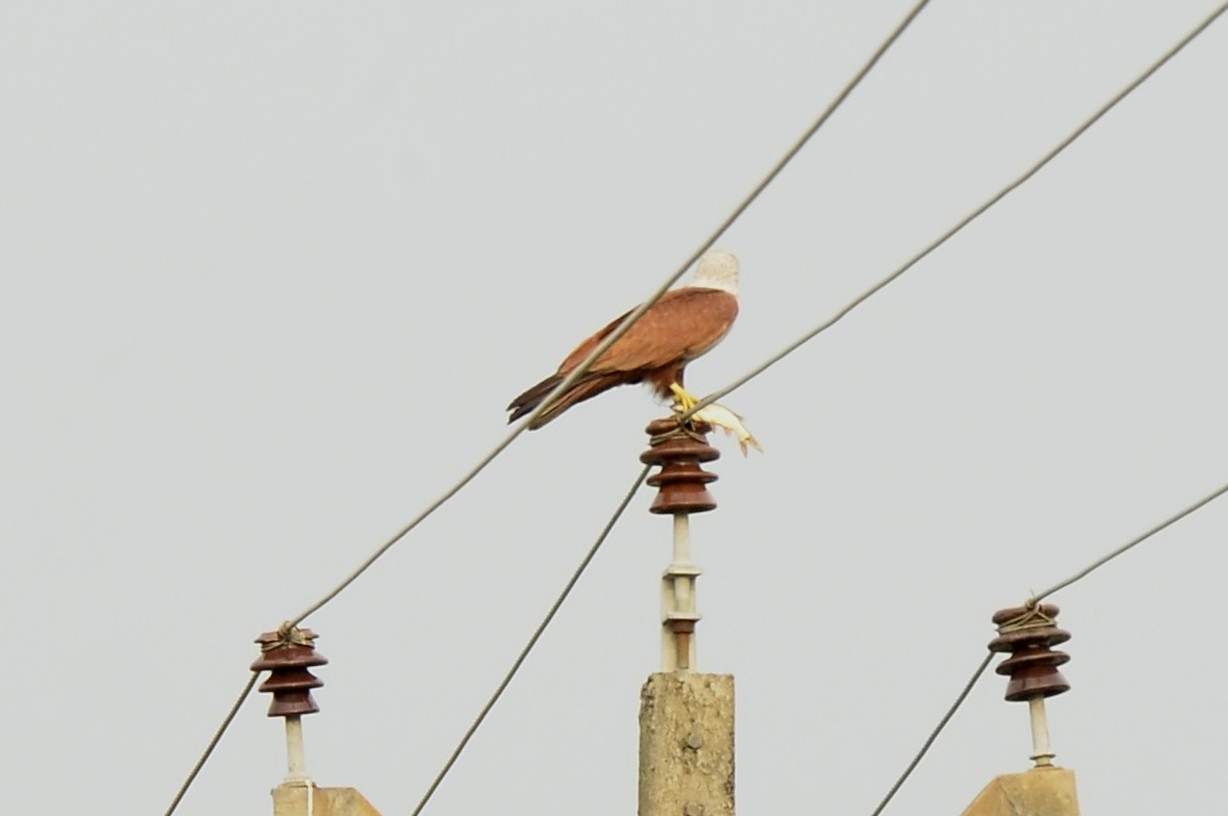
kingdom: Animalia
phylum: Chordata
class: Aves
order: Accipitriformes
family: Accipitridae
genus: Haliastur
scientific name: Haliastur indus
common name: Brahminy kite
